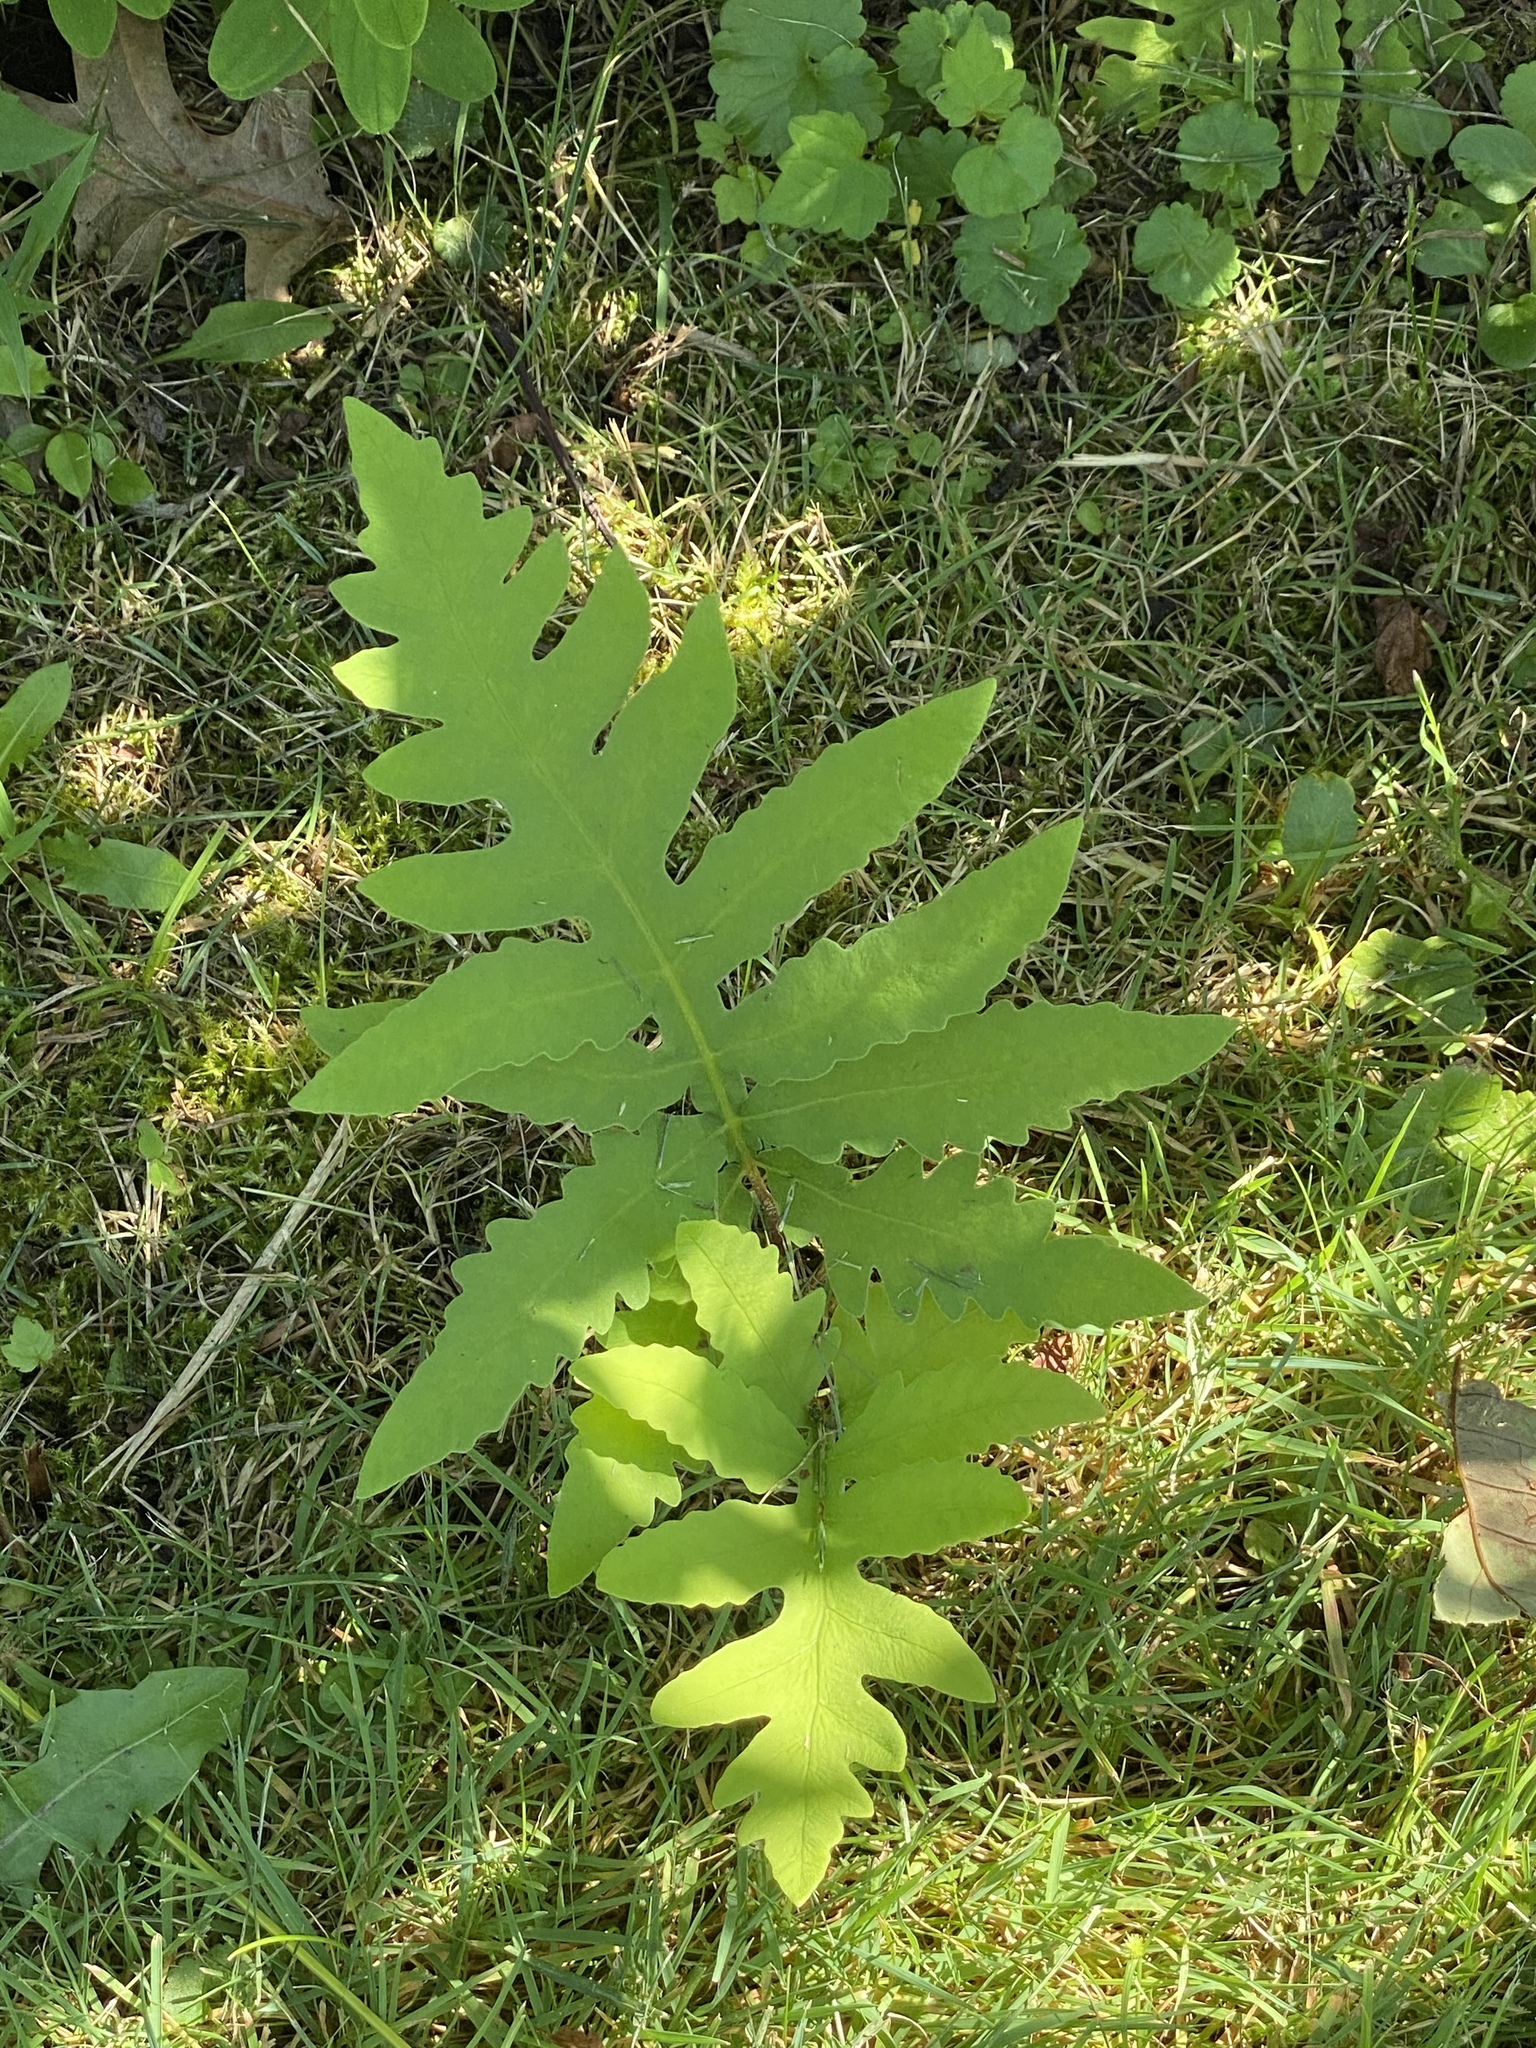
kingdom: Plantae
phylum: Tracheophyta
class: Polypodiopsida
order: Polypodiales
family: Onocleaceae
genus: Onoclea
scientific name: Onoclea sensibilis
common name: Sensitive fern
